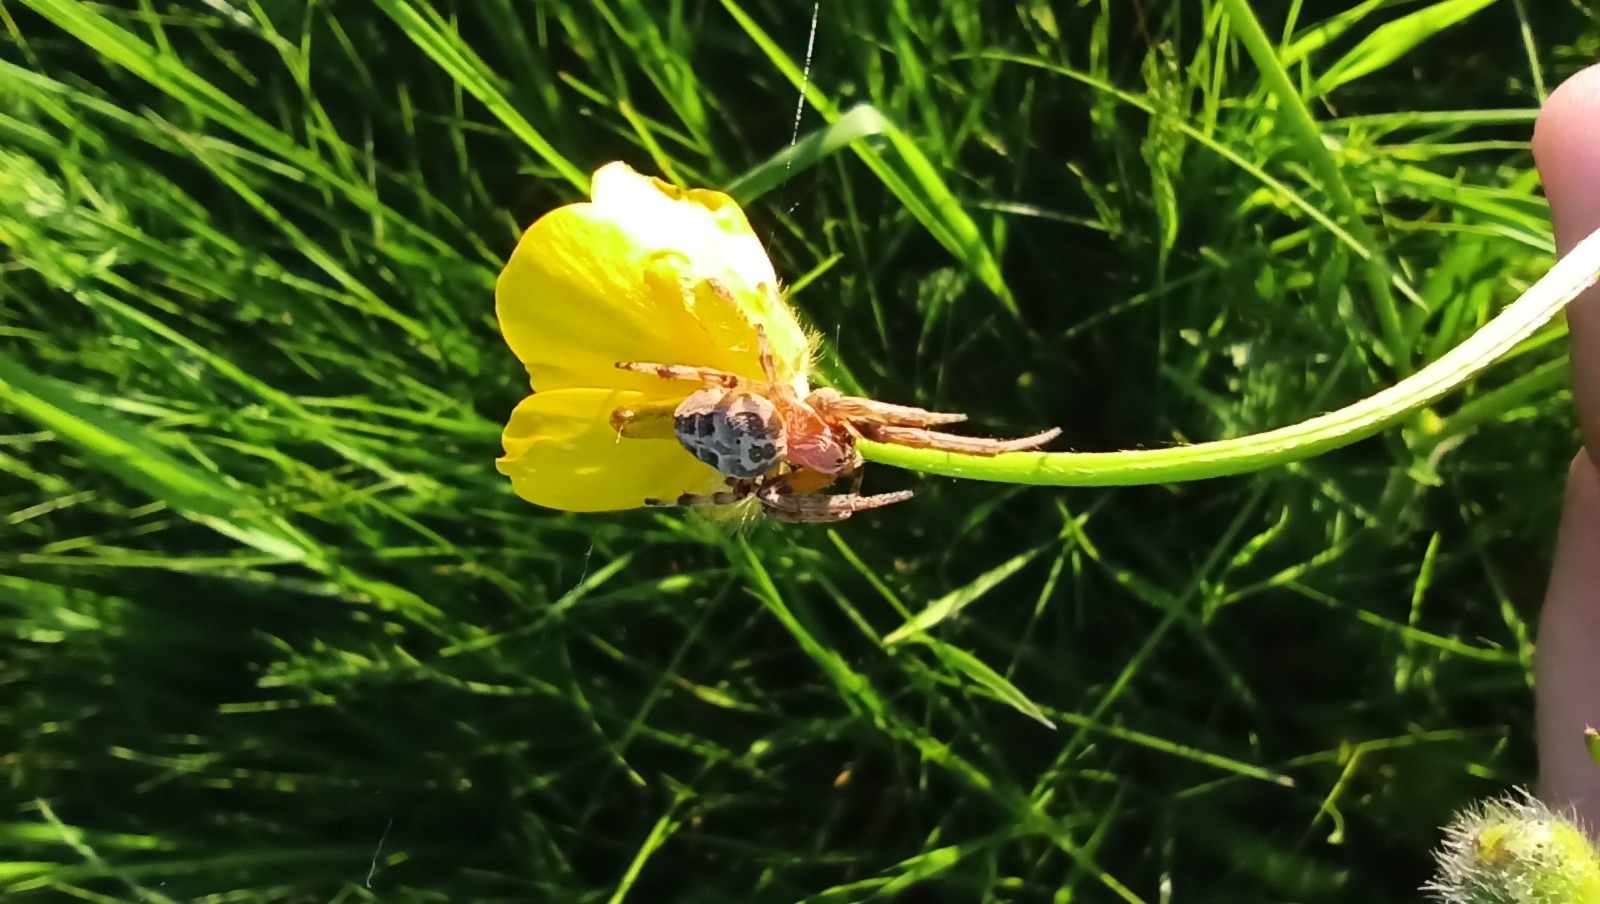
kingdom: Animalia
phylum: Arthropoda
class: Arachnida
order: Araneae
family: Araneidae
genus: Larinioides
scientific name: Larinioides
